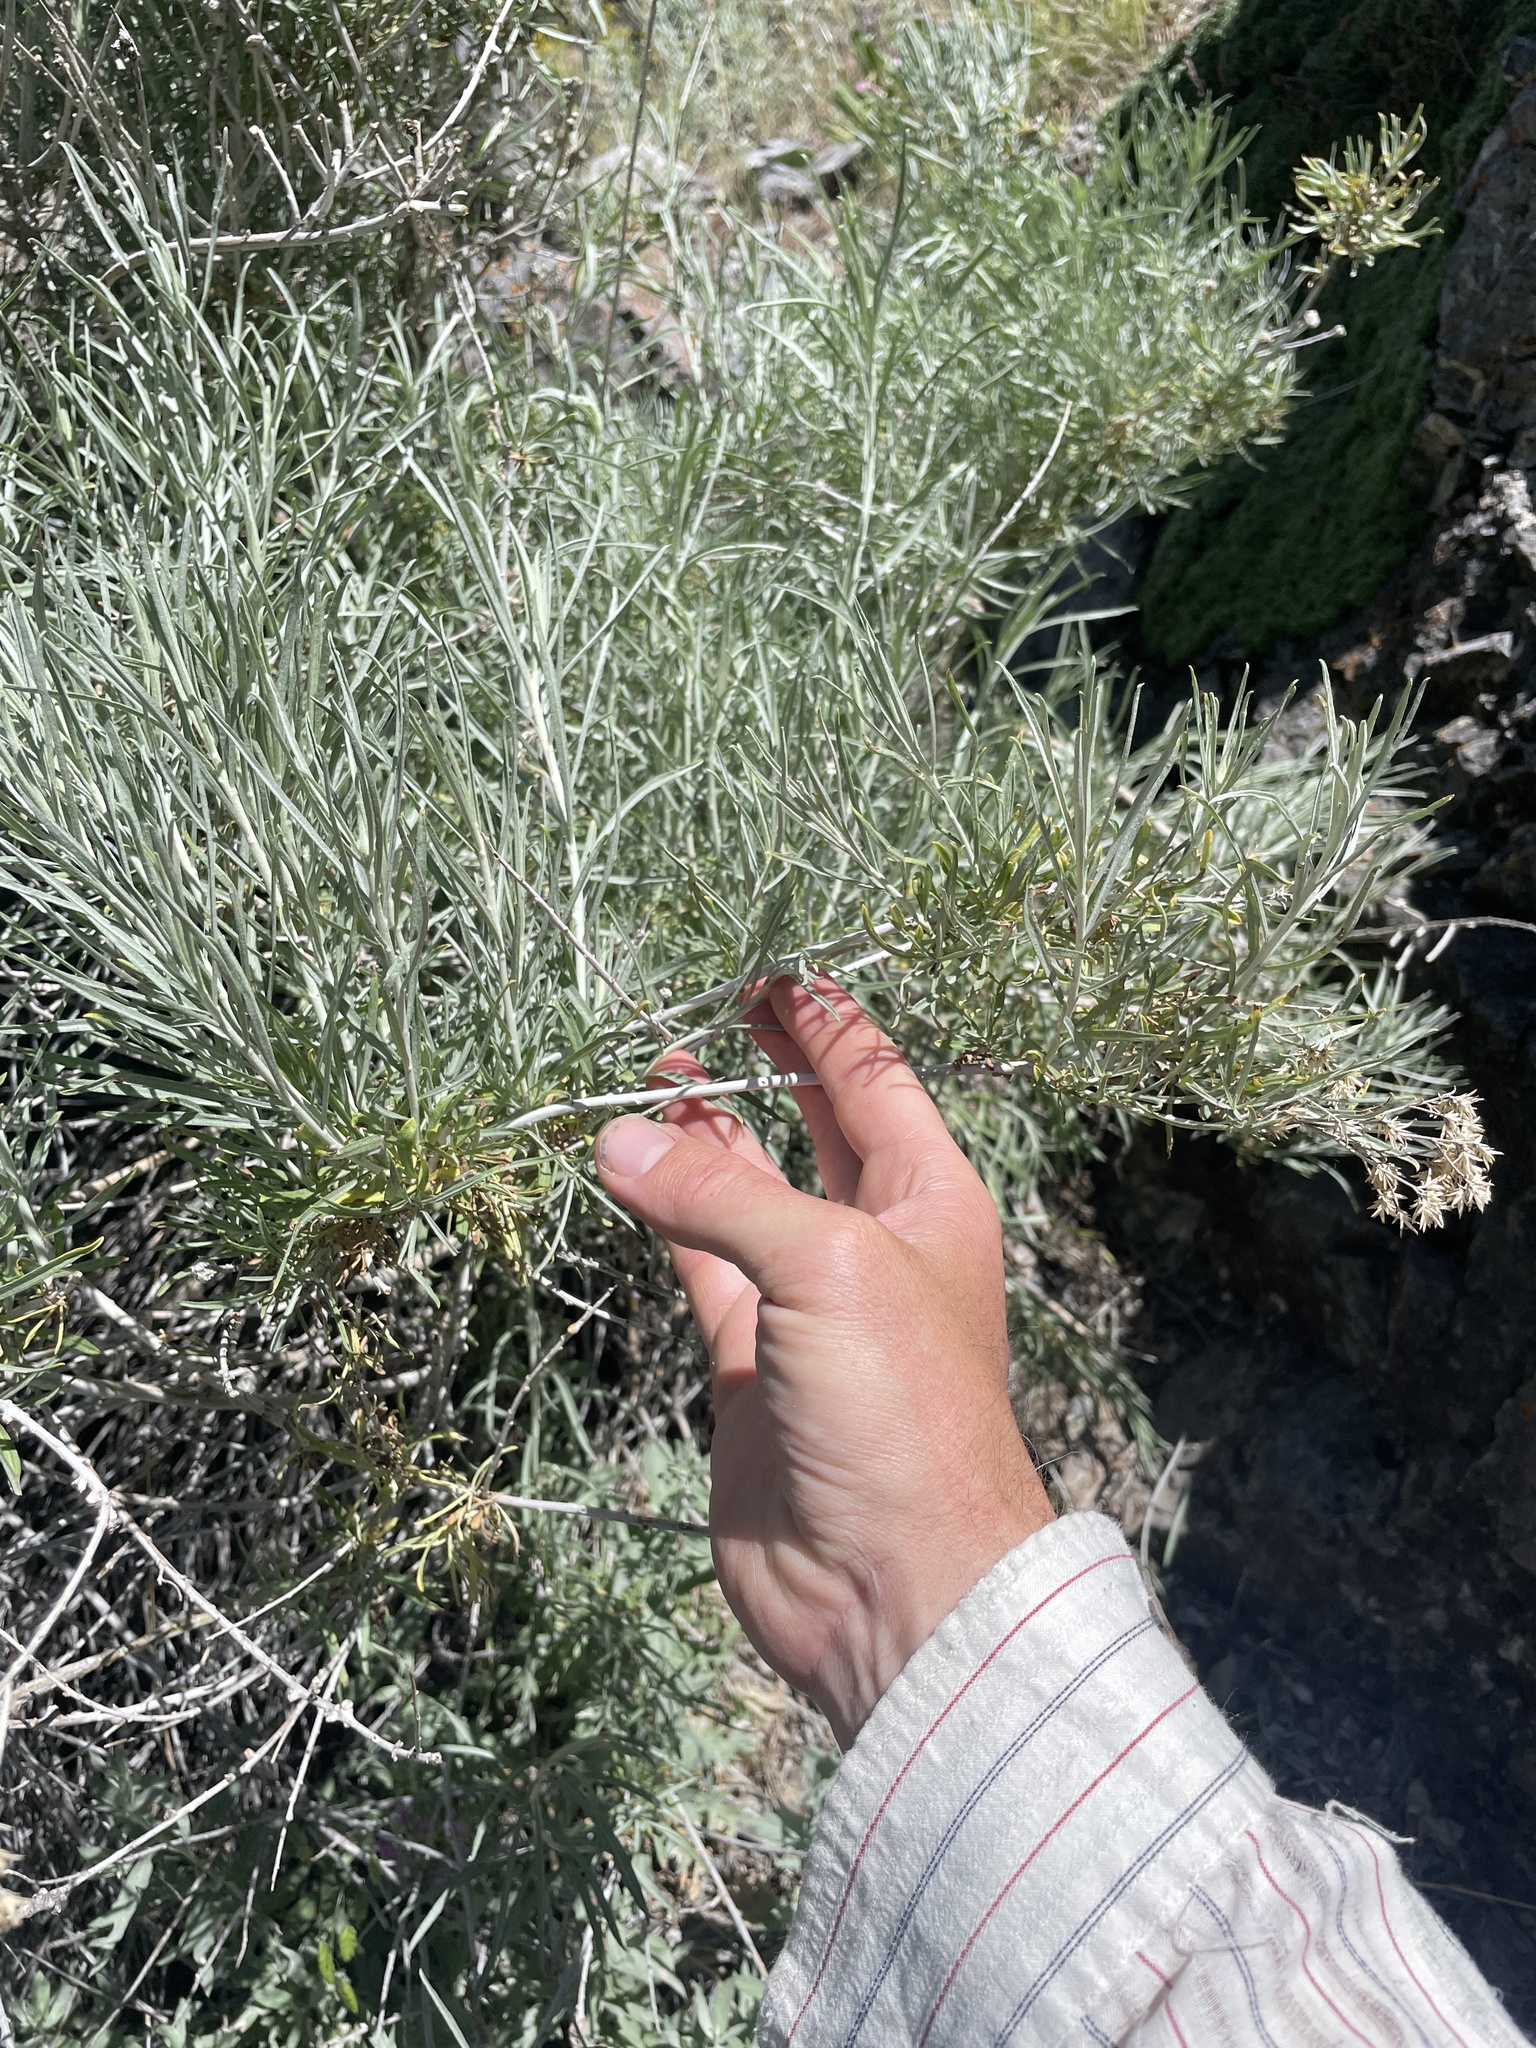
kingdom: Plantae
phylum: Tracheophyta
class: Magnoliopsida
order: Asterales
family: Asteraceae
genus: Ericameria
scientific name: Ericameria nauseosa
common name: Rubber rabbitbrush
